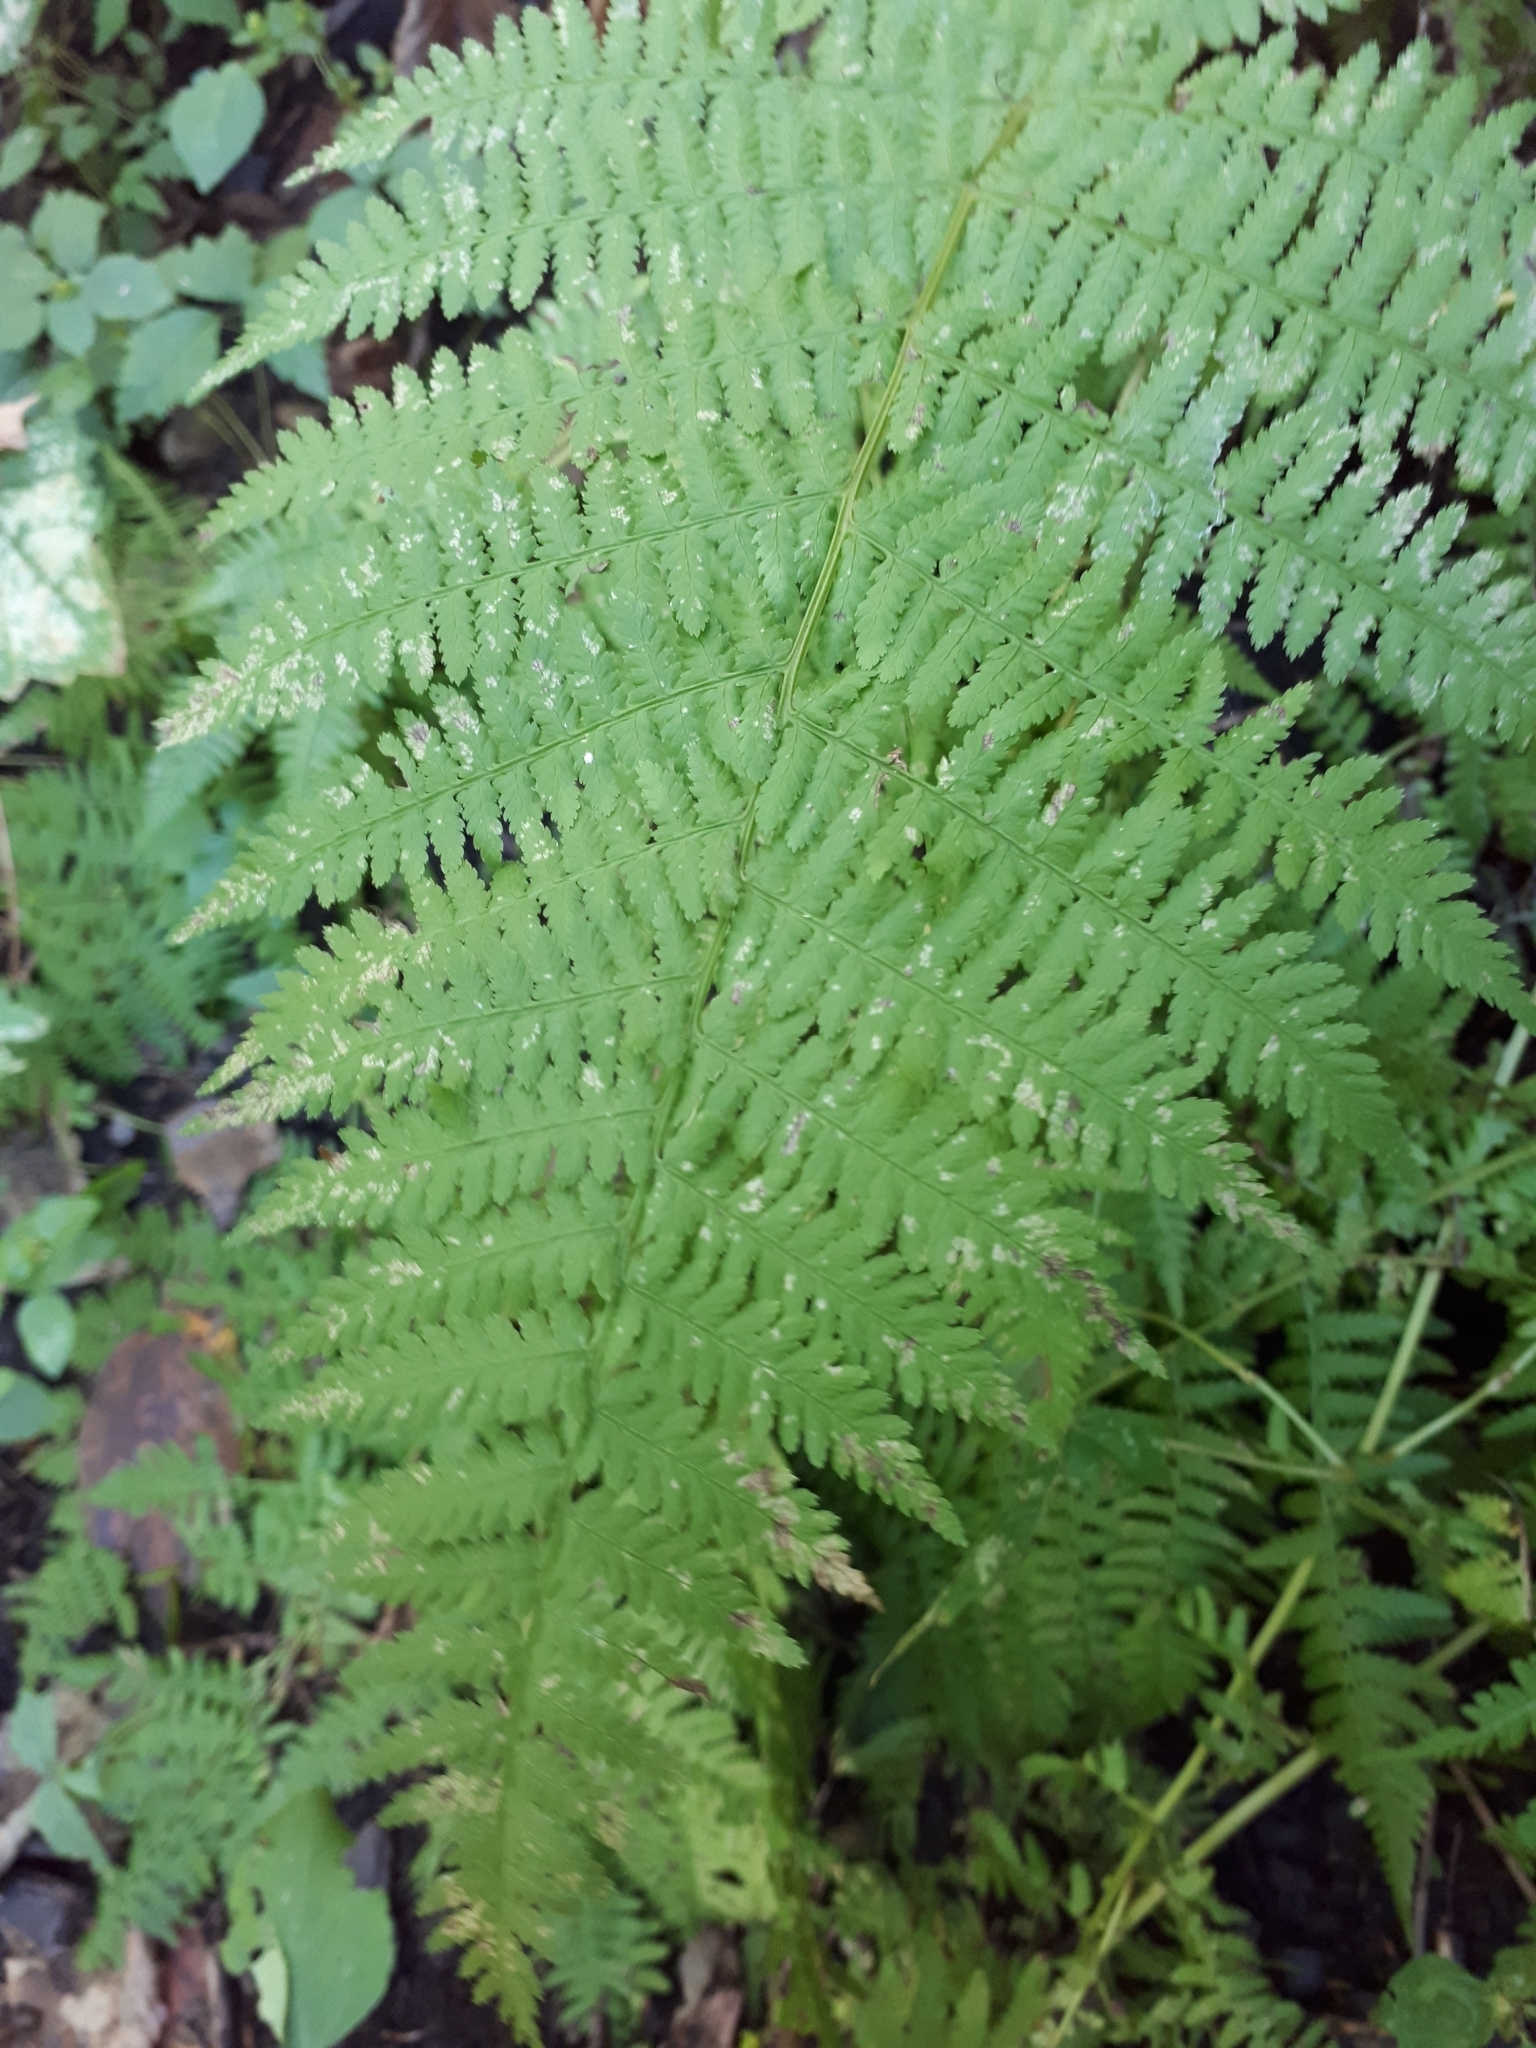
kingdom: Plantae
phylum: Tracheophyta
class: Polypodiopsida
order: Polypodiales
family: Athyriaceae
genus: Athyrium
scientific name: Athyrium angustum
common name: Northern lady fern
